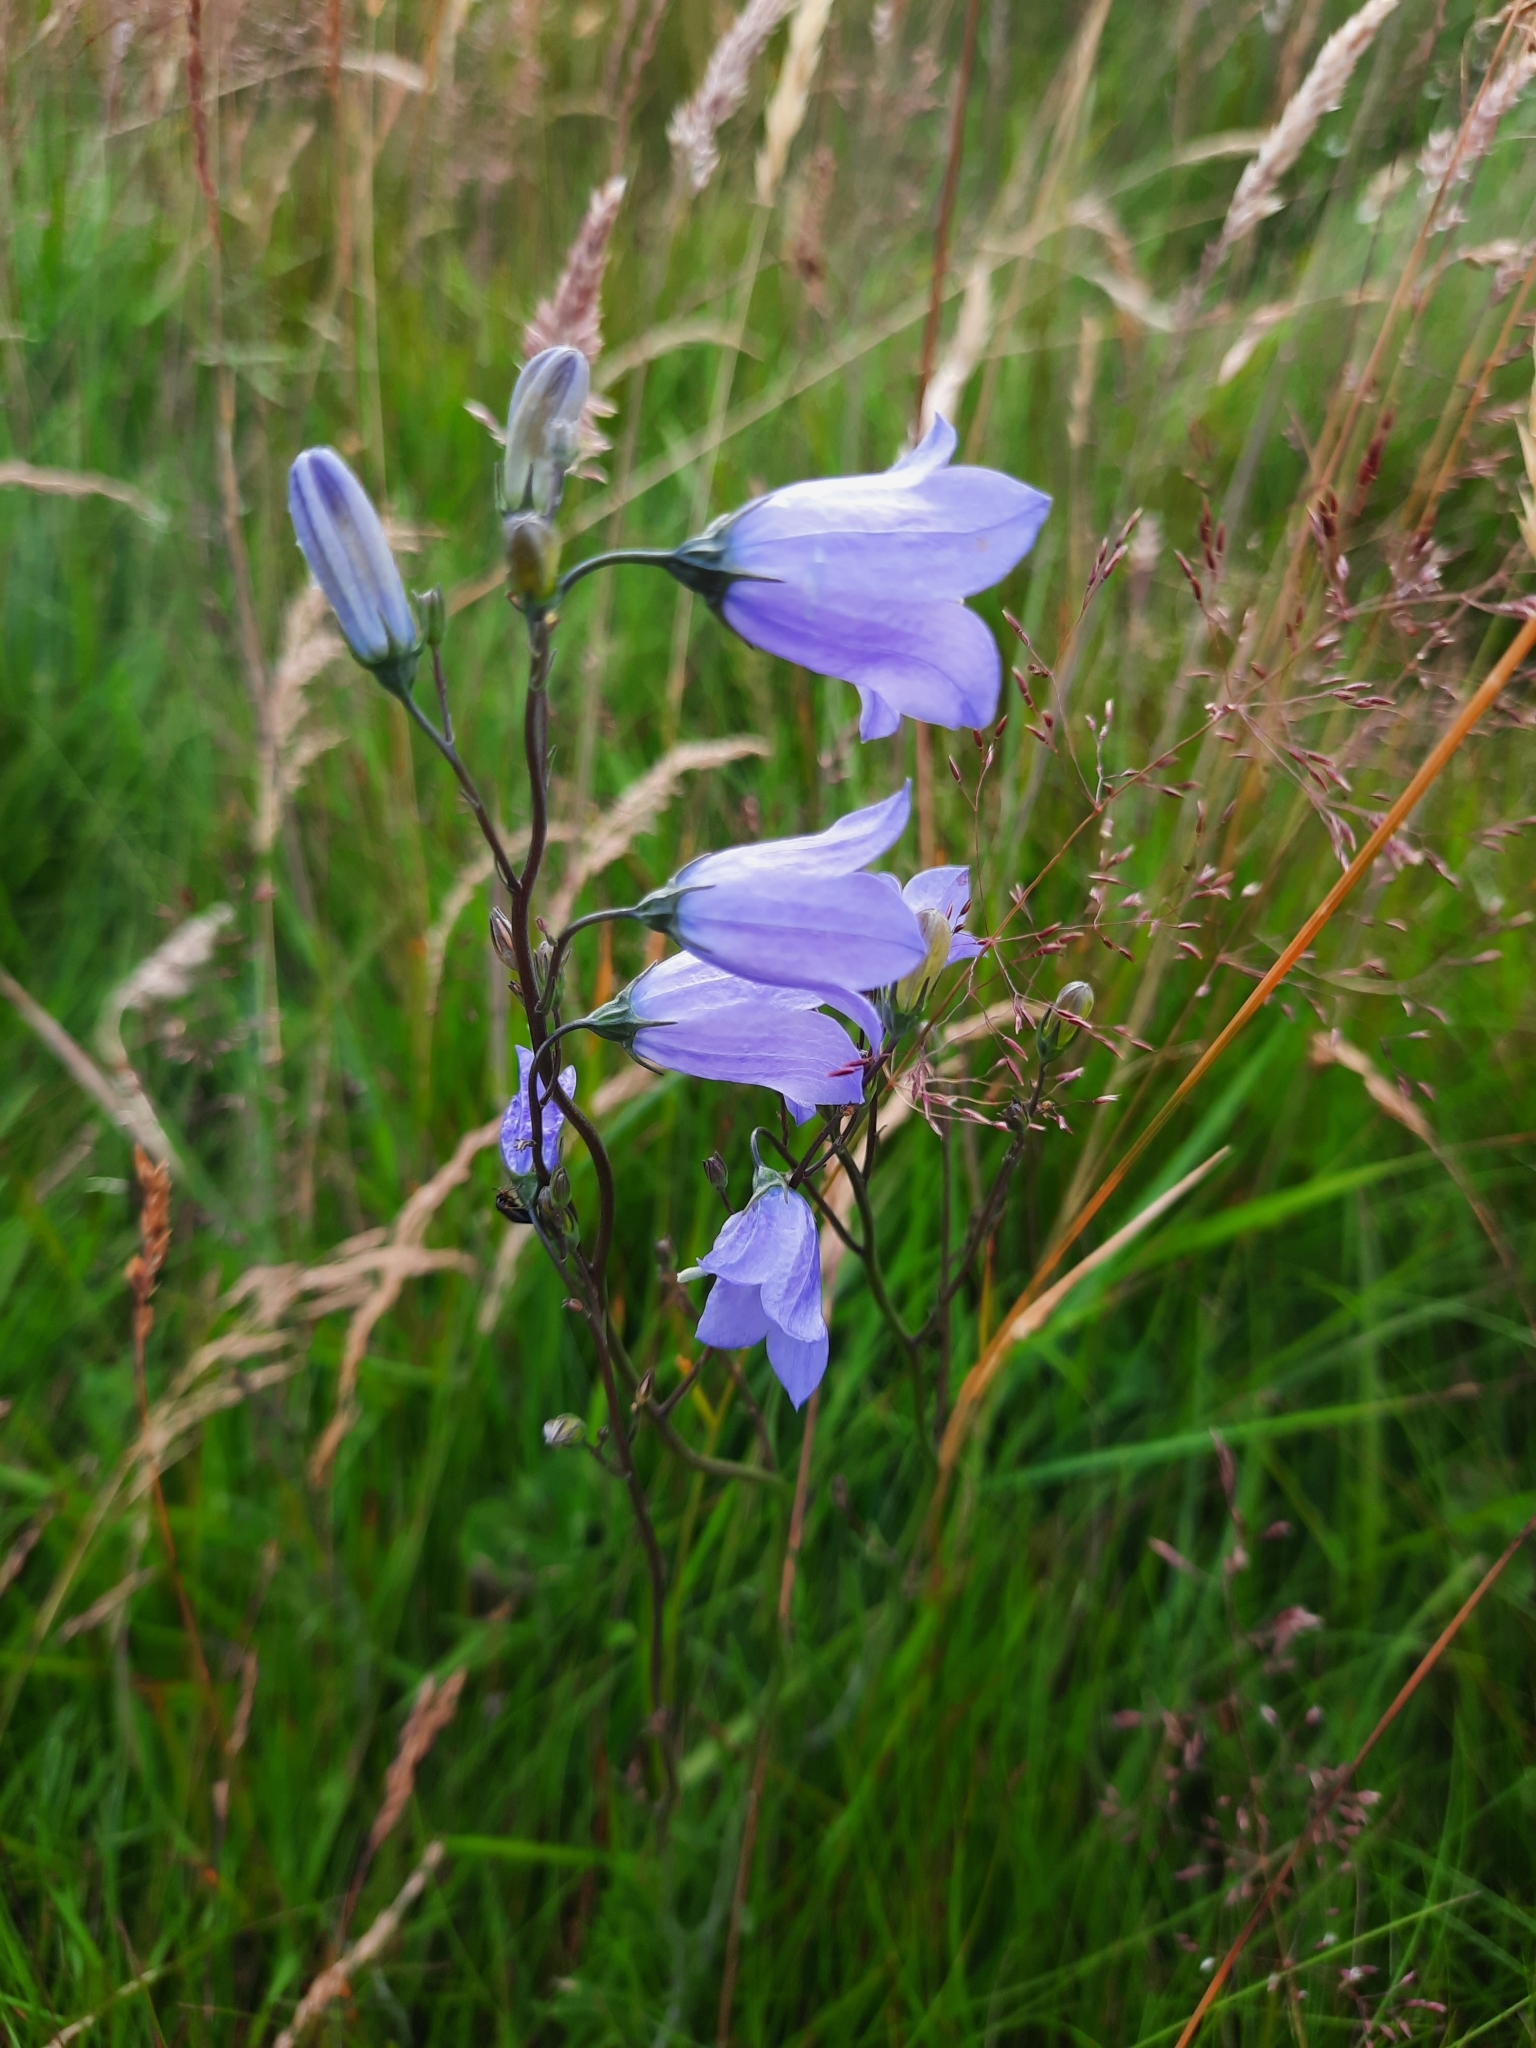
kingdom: Plantae
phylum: Tracheophyta
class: Magnoliopsida
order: Asterales
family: Campanulaceae
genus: Campanula
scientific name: Campanula rotundifolia
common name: Harebell
